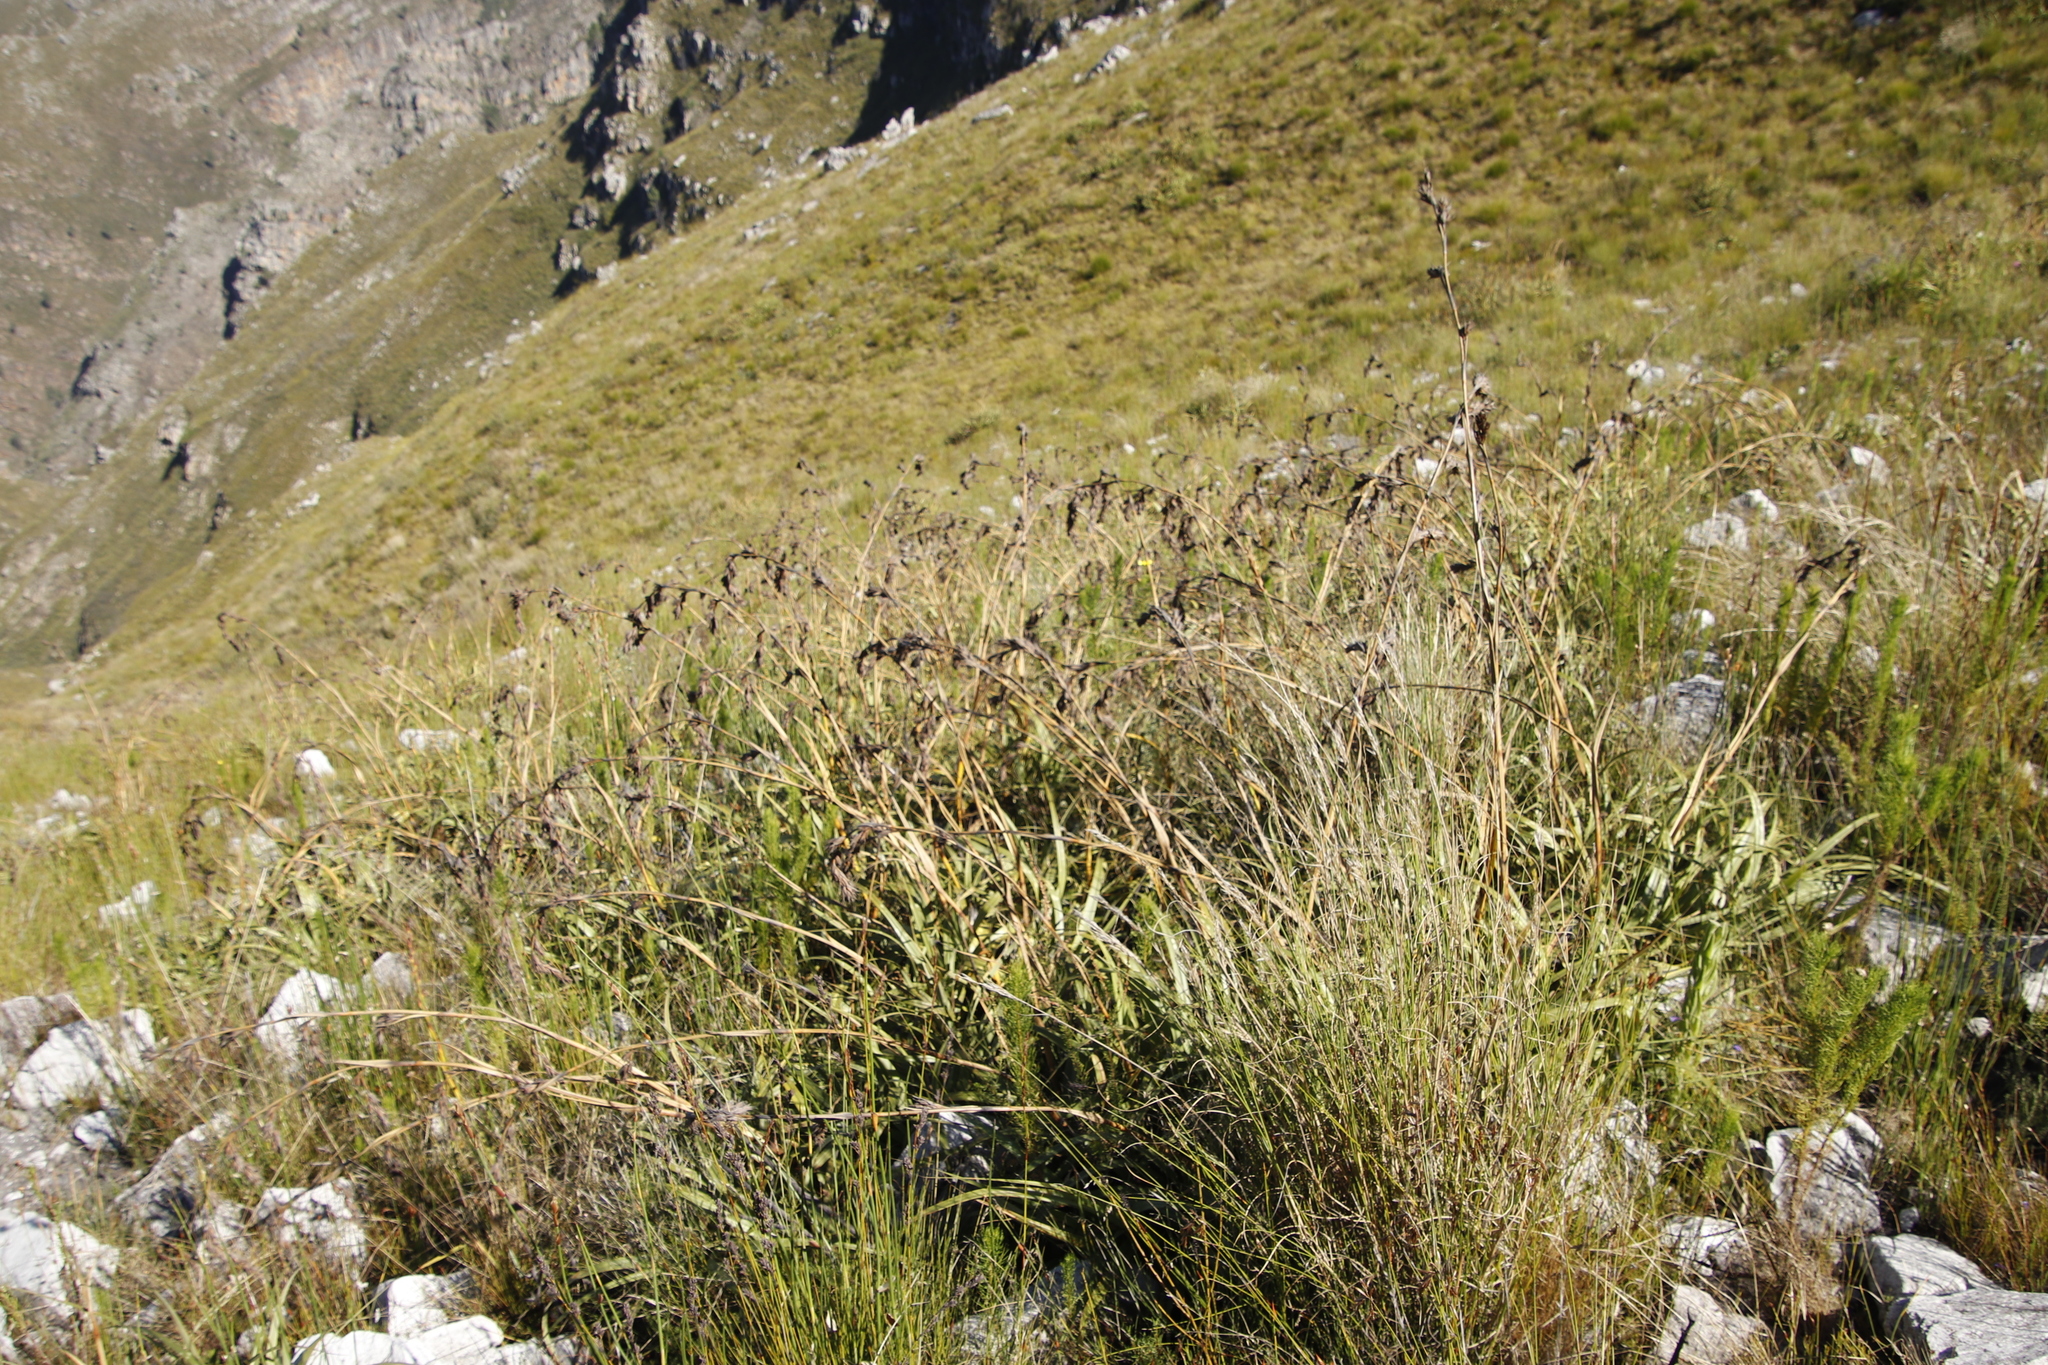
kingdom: Plantae
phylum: Tracheophyta
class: Liliopsida
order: Poales
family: Cyperaceae
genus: Tetraria
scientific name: Tetraria thermalis
